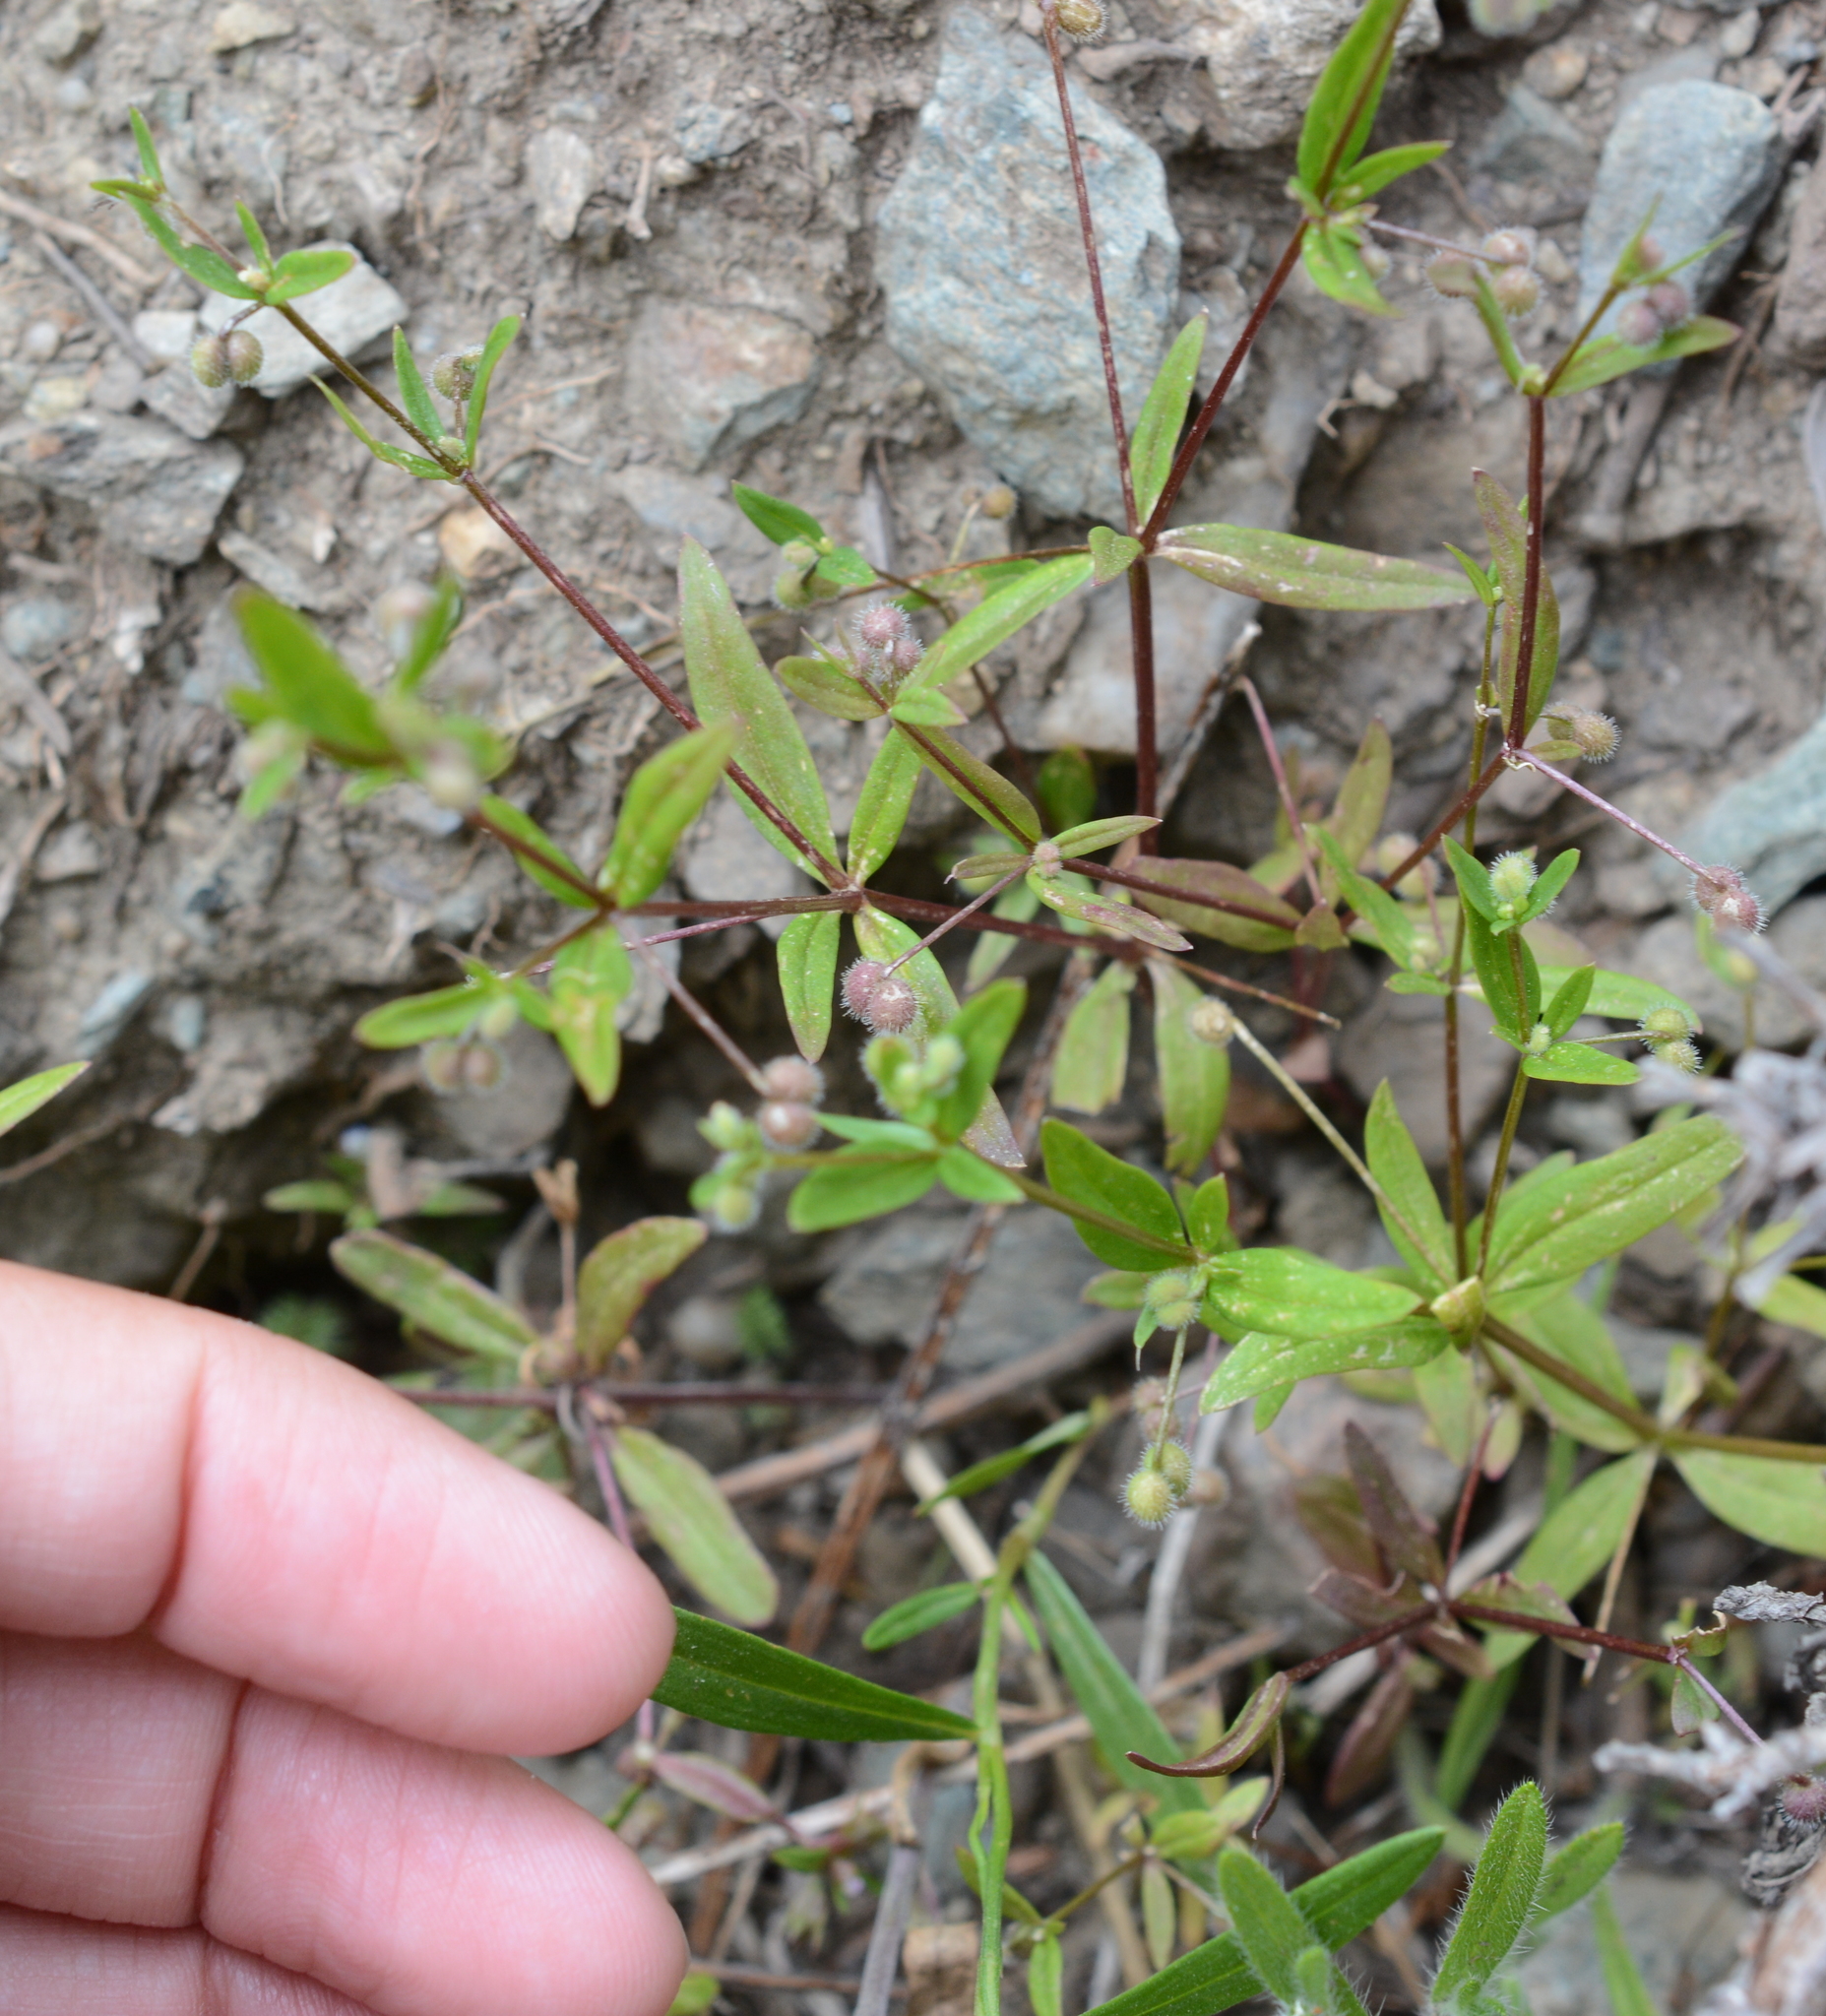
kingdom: Plantae
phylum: Tracheophyta
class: Magnoliopsida
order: Gentianales
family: Rubiaceae
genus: Galium
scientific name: Galium bifolium
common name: Low mountain bedstraw
